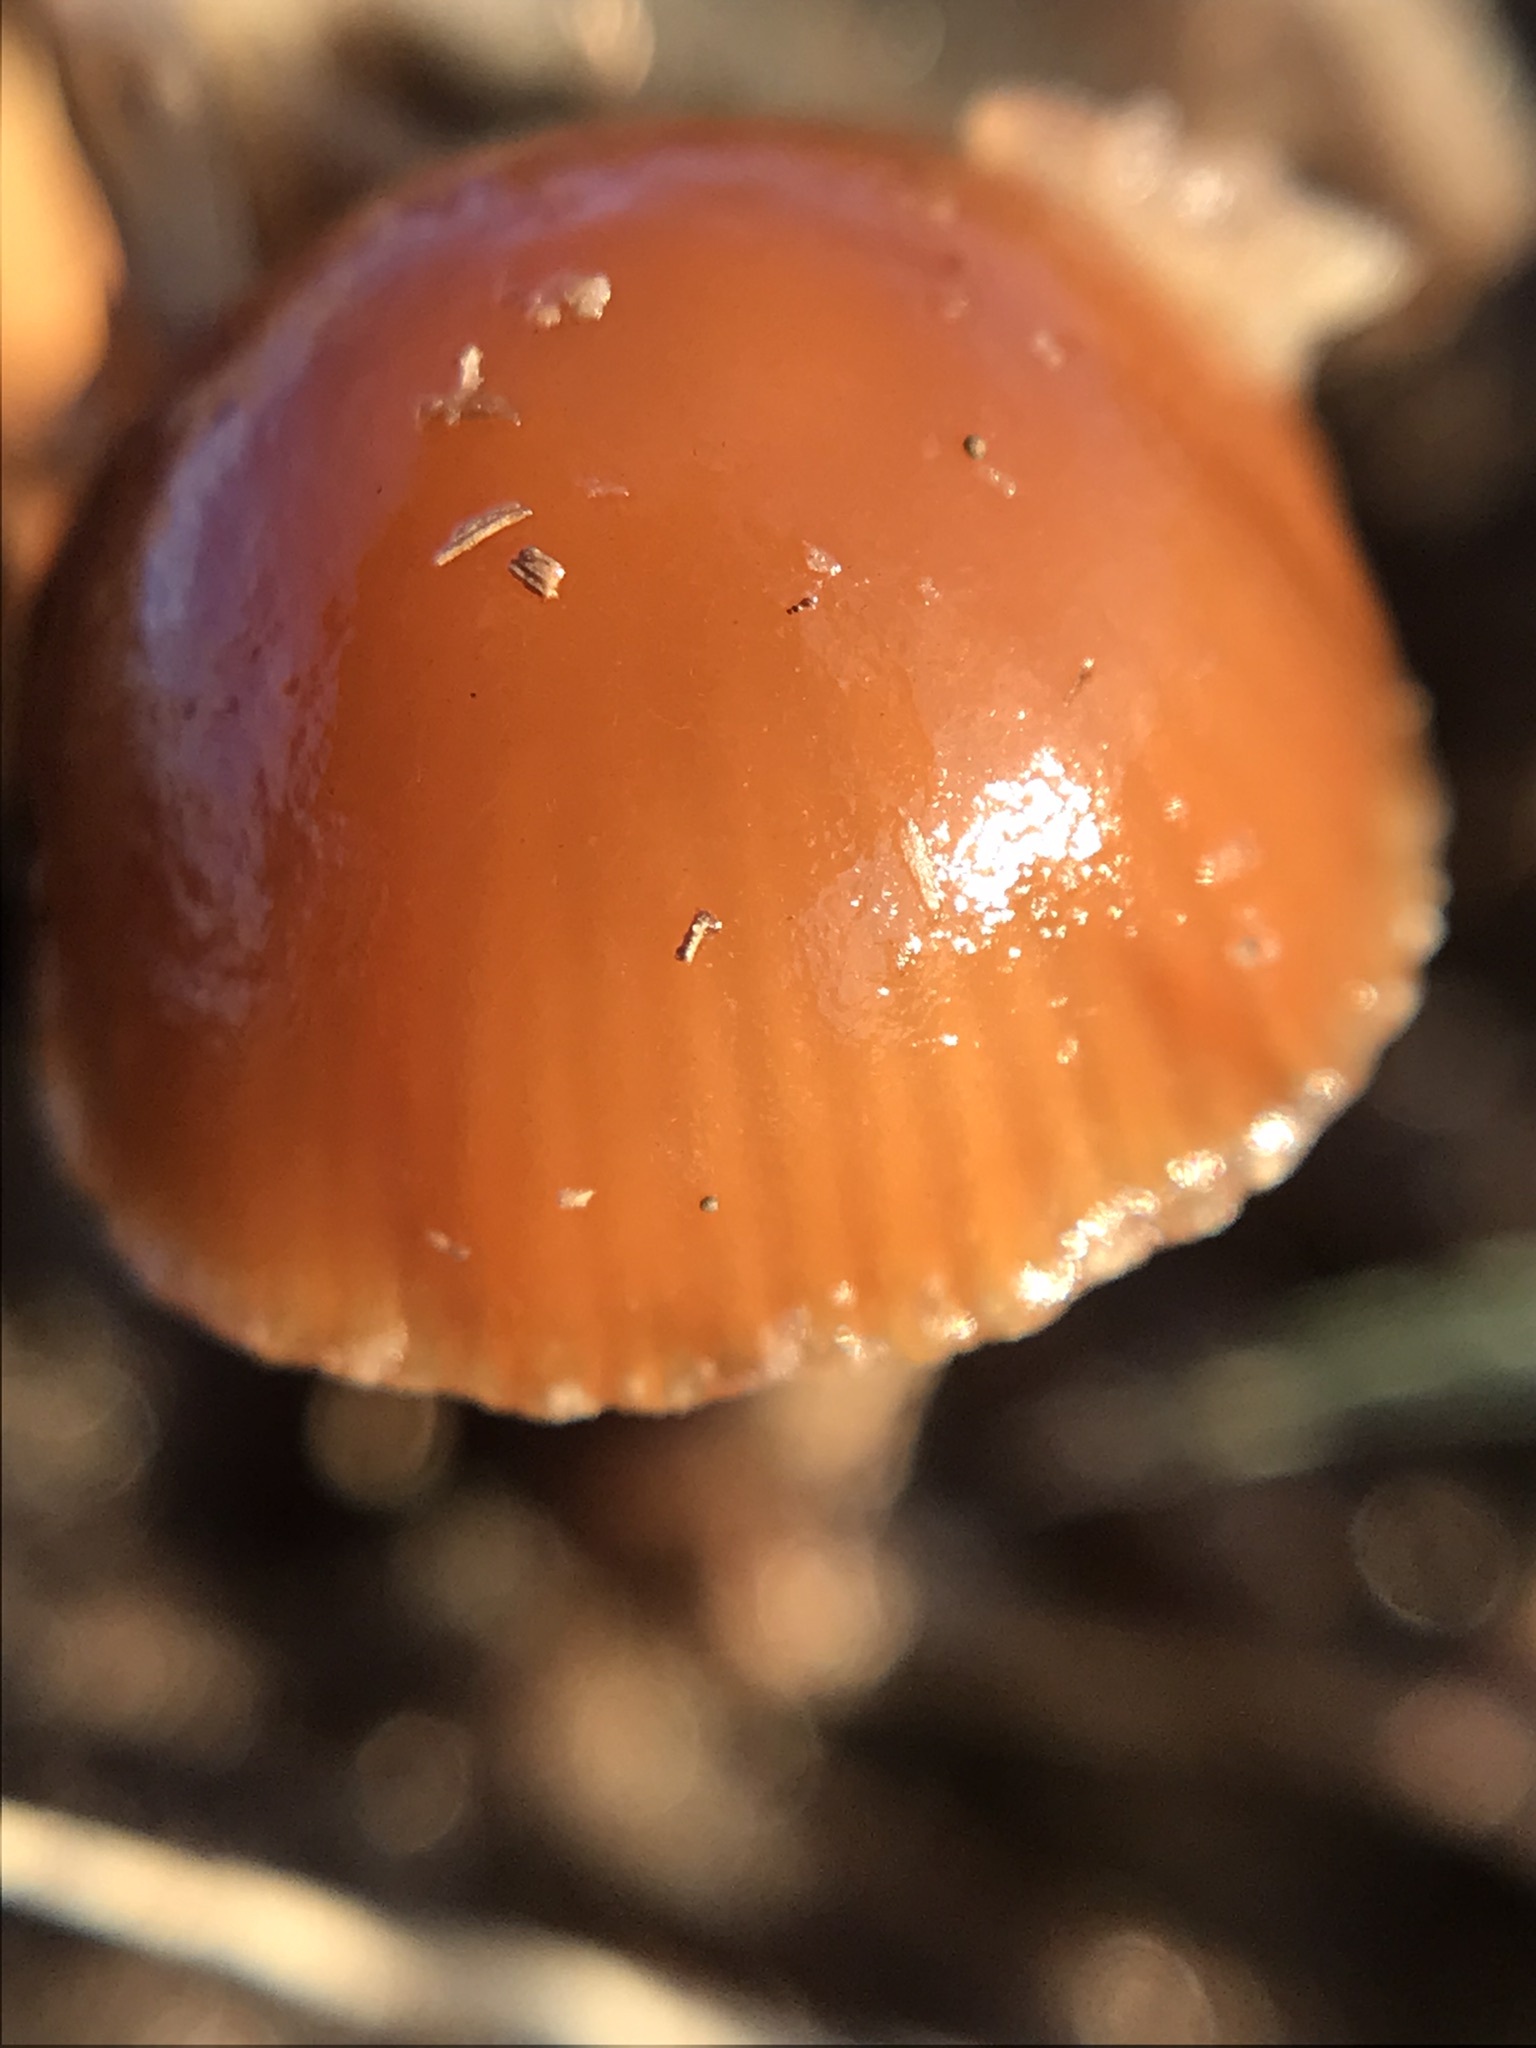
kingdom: Fungi
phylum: Basidiomycota
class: Agaricomycetes
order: Agaricales
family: Strophariaceae
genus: Deconica
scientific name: Deconica coprophila
